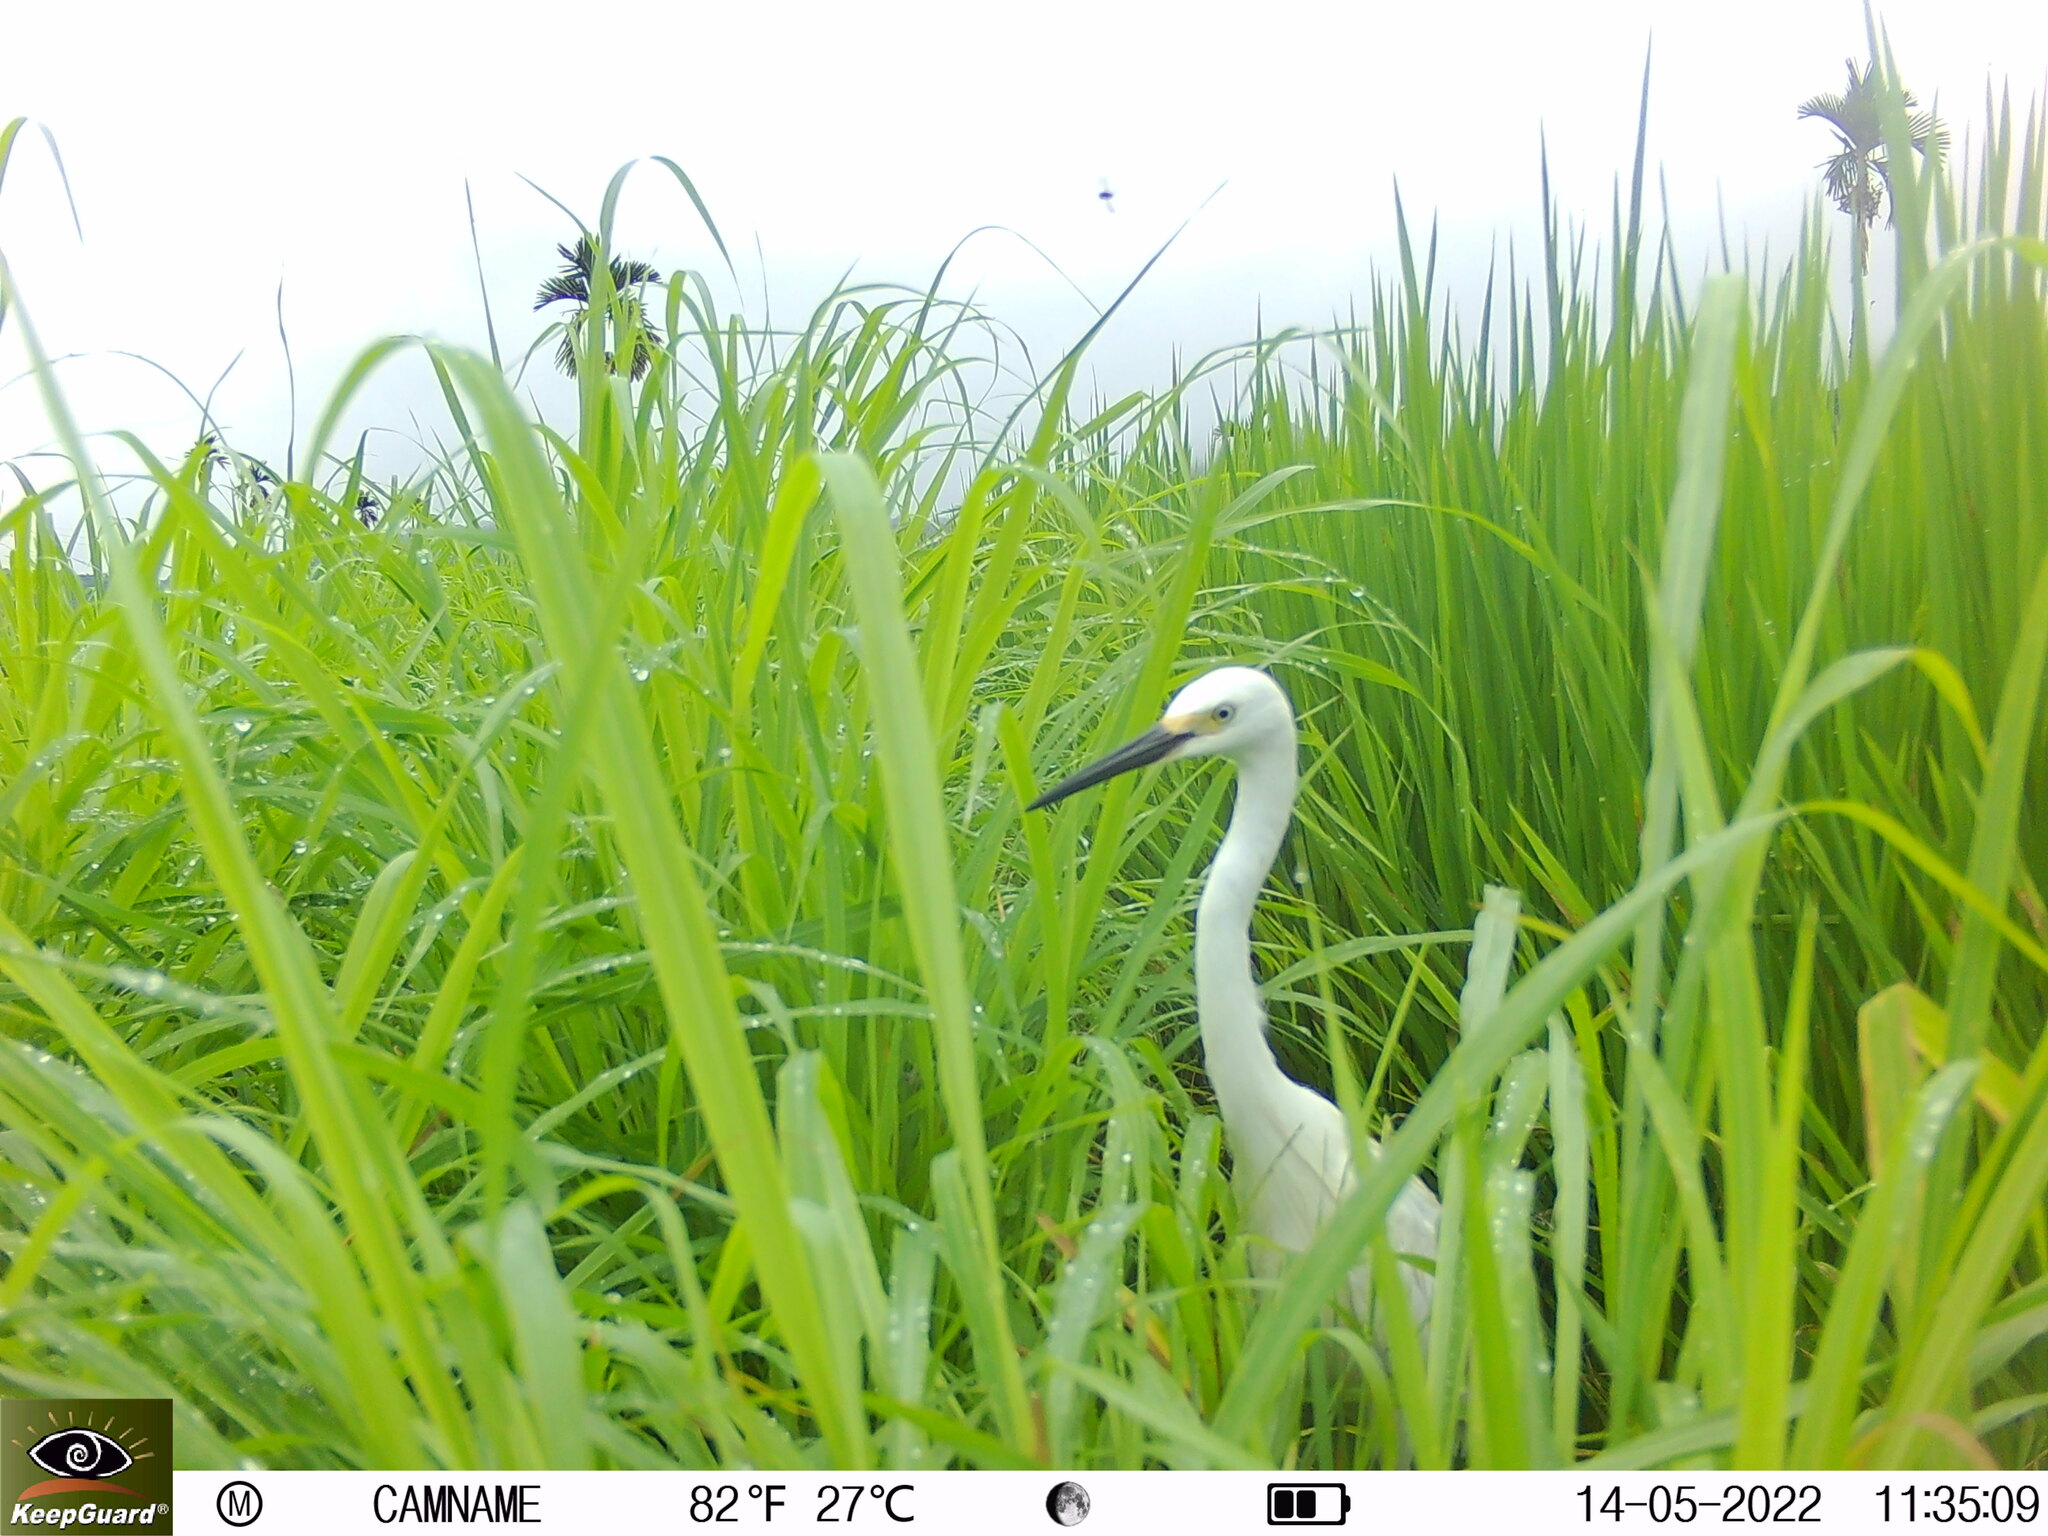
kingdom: Animalia
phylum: Chordata
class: Aves
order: Pelecaniformes
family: Ardeidae
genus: Egretta
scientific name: Egretta garzetta
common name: Little egret
